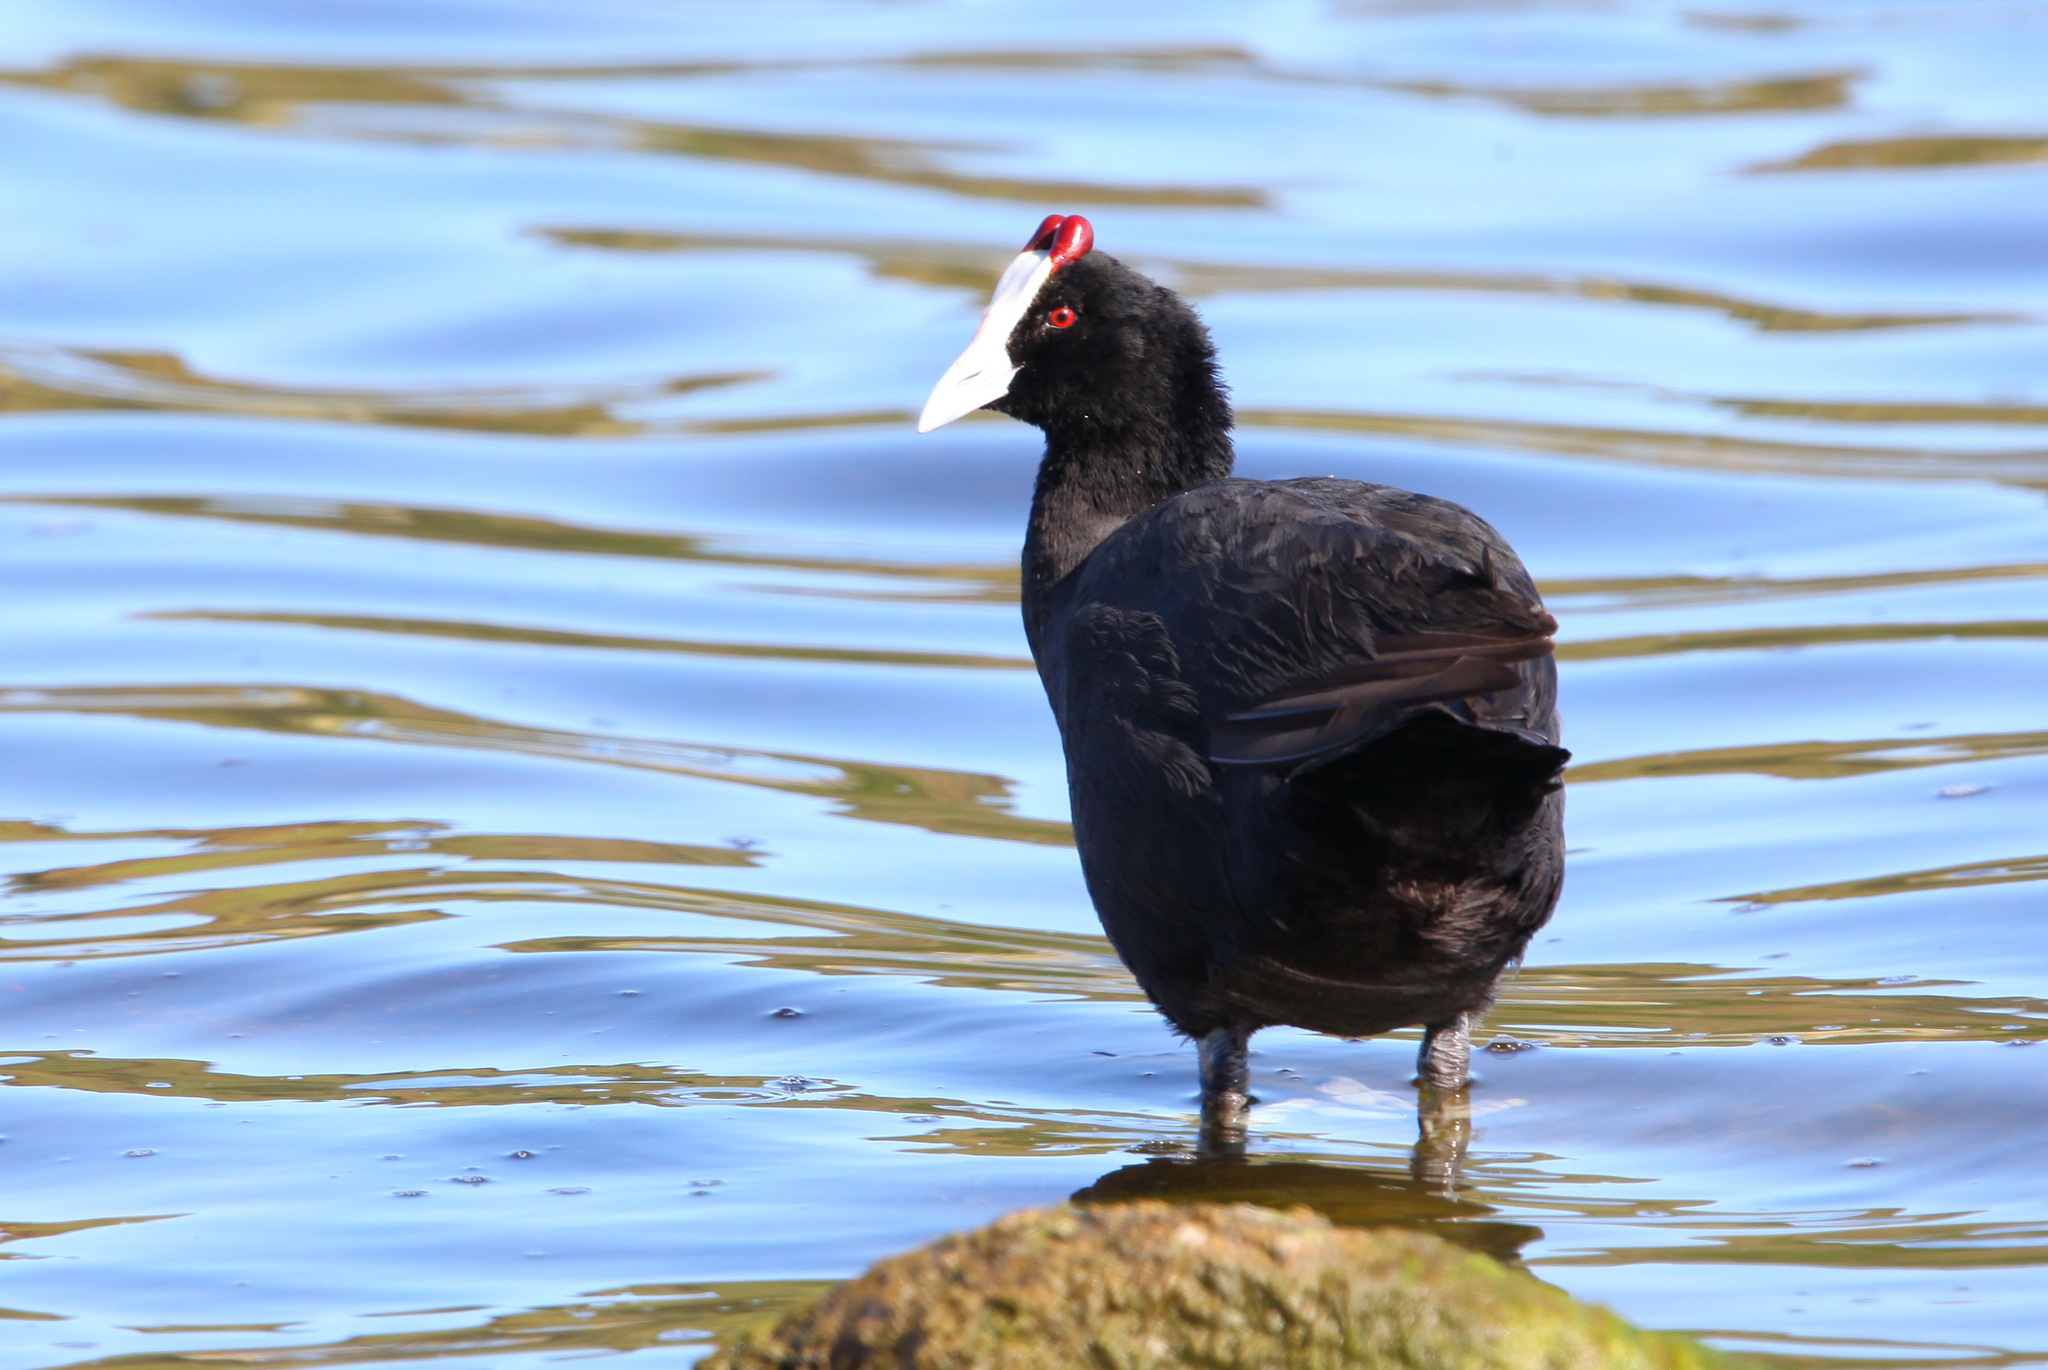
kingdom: Animalia
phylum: Chordata
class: Aves
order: Gruiformes
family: Rallidae
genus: Fulica
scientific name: Fulica cristata
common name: Red-knobbed coot
